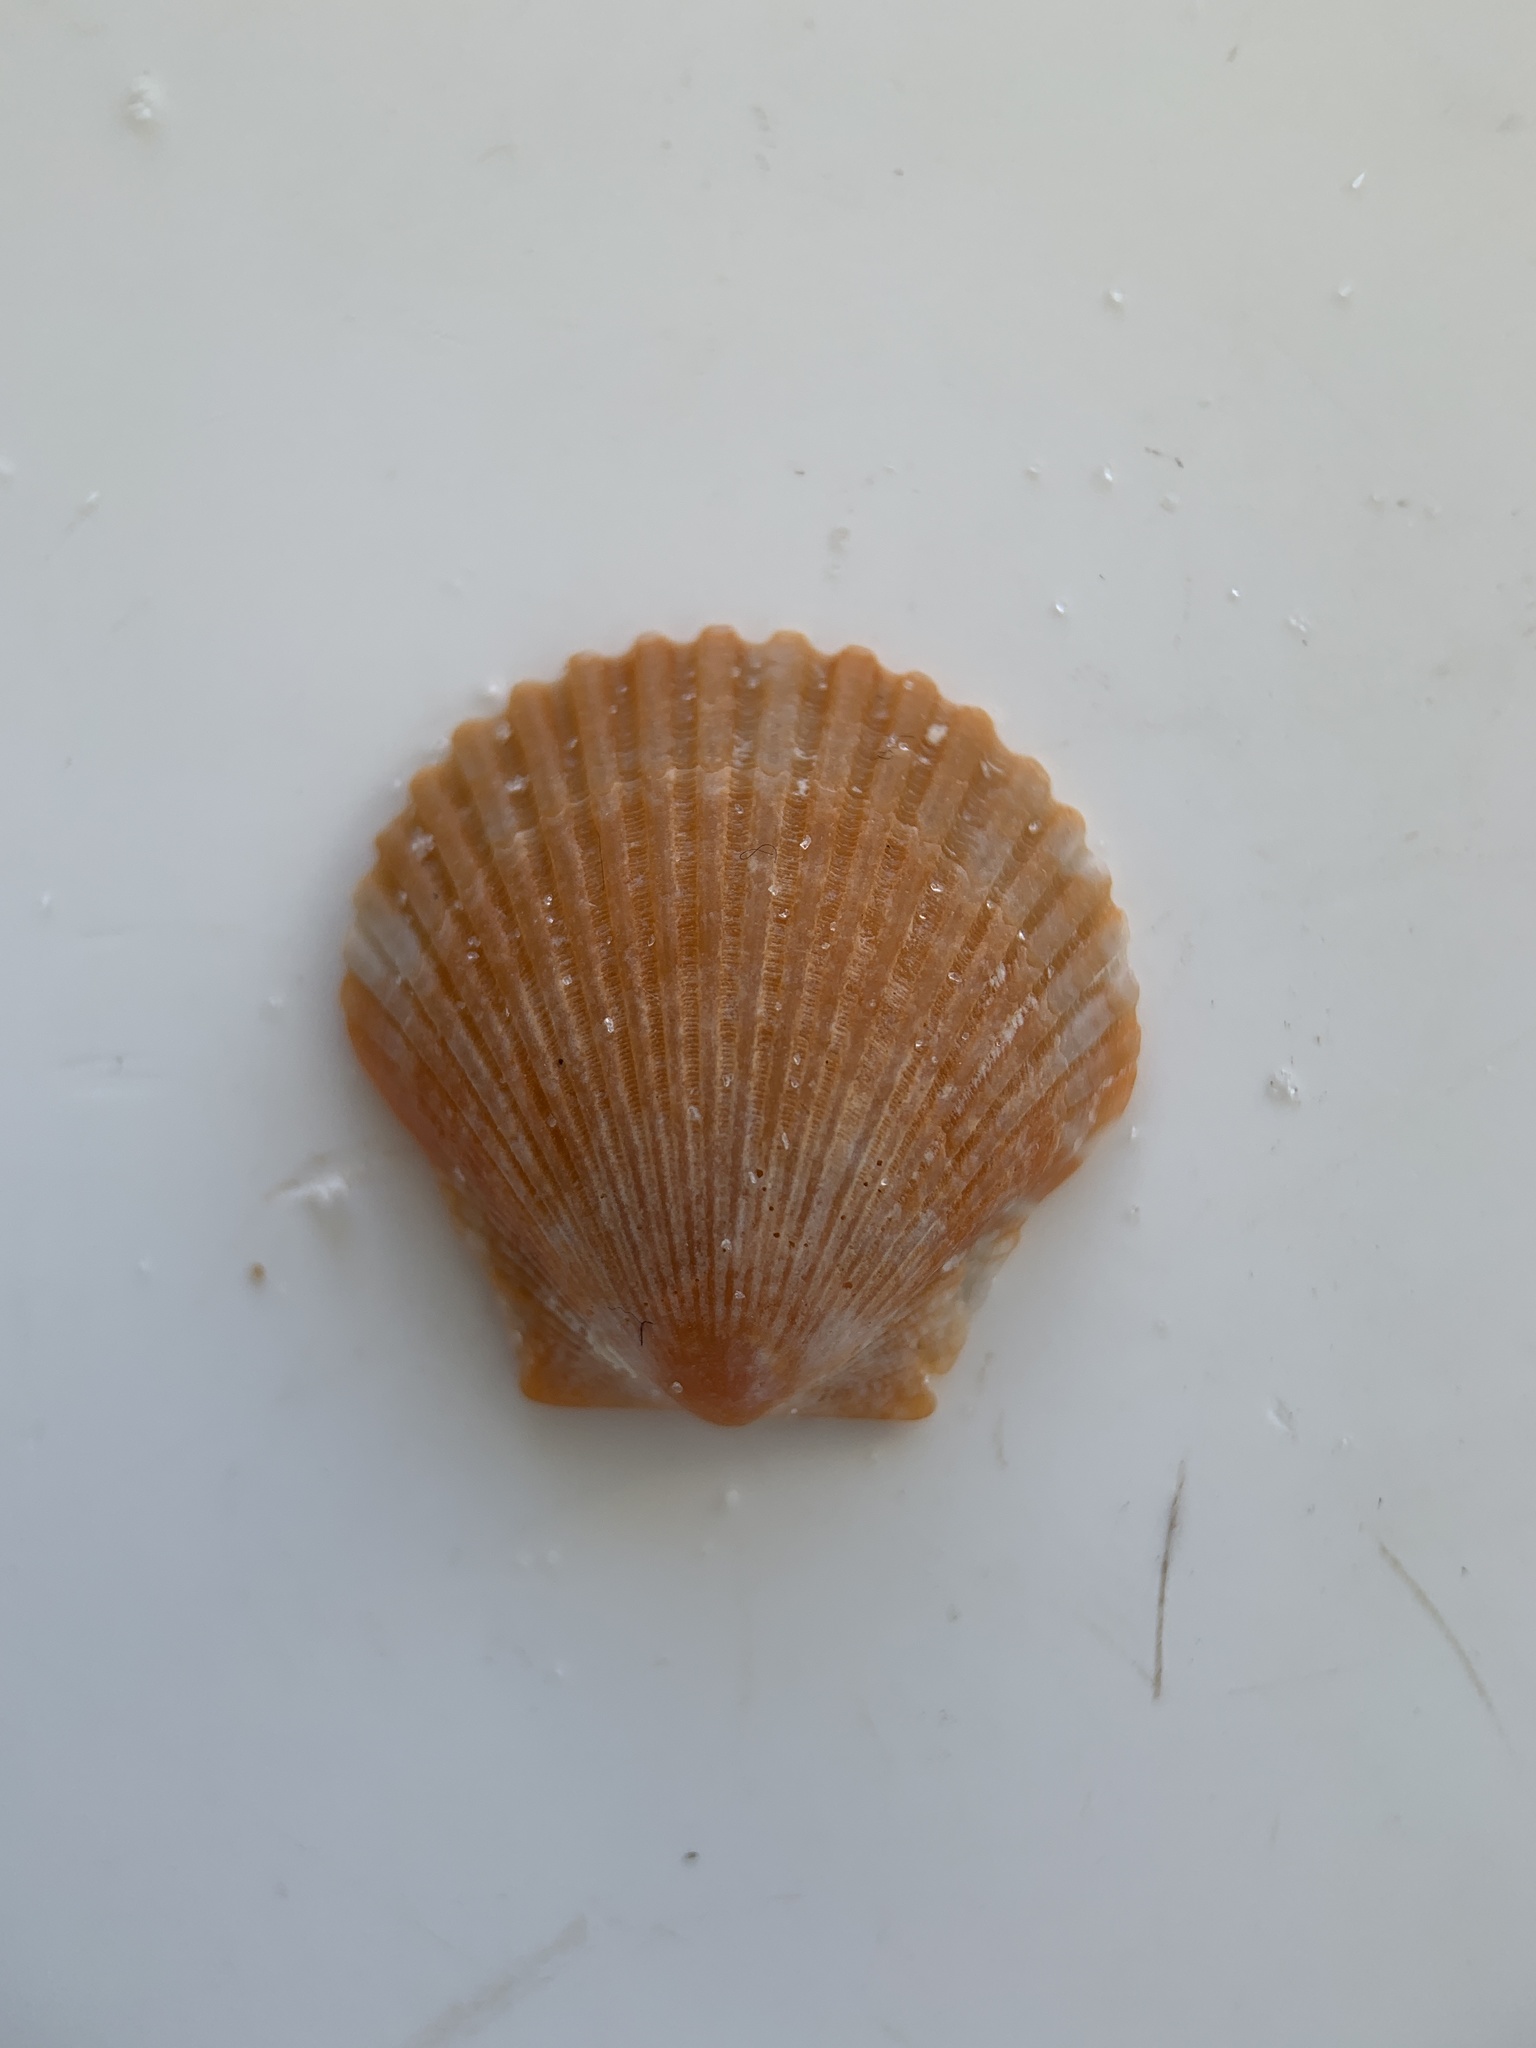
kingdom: Animalia
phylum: Mollusca
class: Bivalvia
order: Pectinida
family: Pectinidae
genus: Argopecten
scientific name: Argopecten gibbus
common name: Atlantic calico scallop
